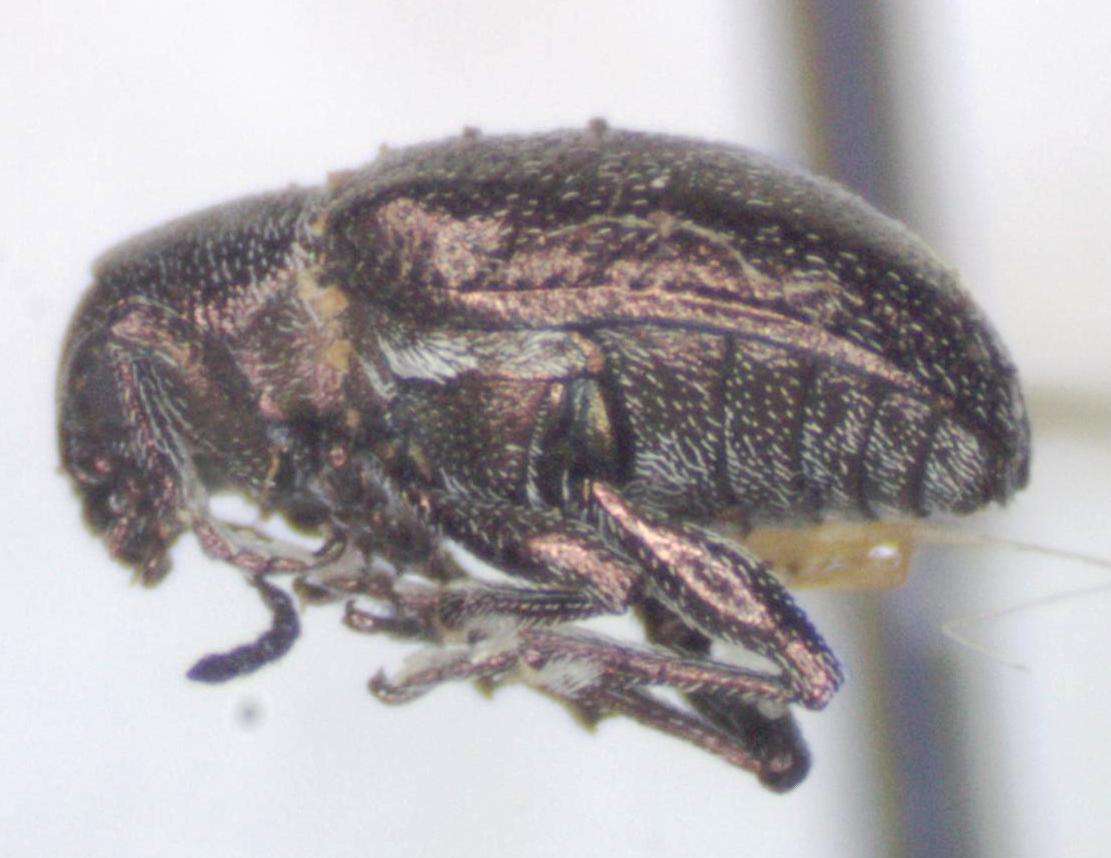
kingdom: Animalia
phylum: Arthropoda
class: Insecta
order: Coleoptera
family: Chrysomelidae
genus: Graphops
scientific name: Graphops curtipennis
